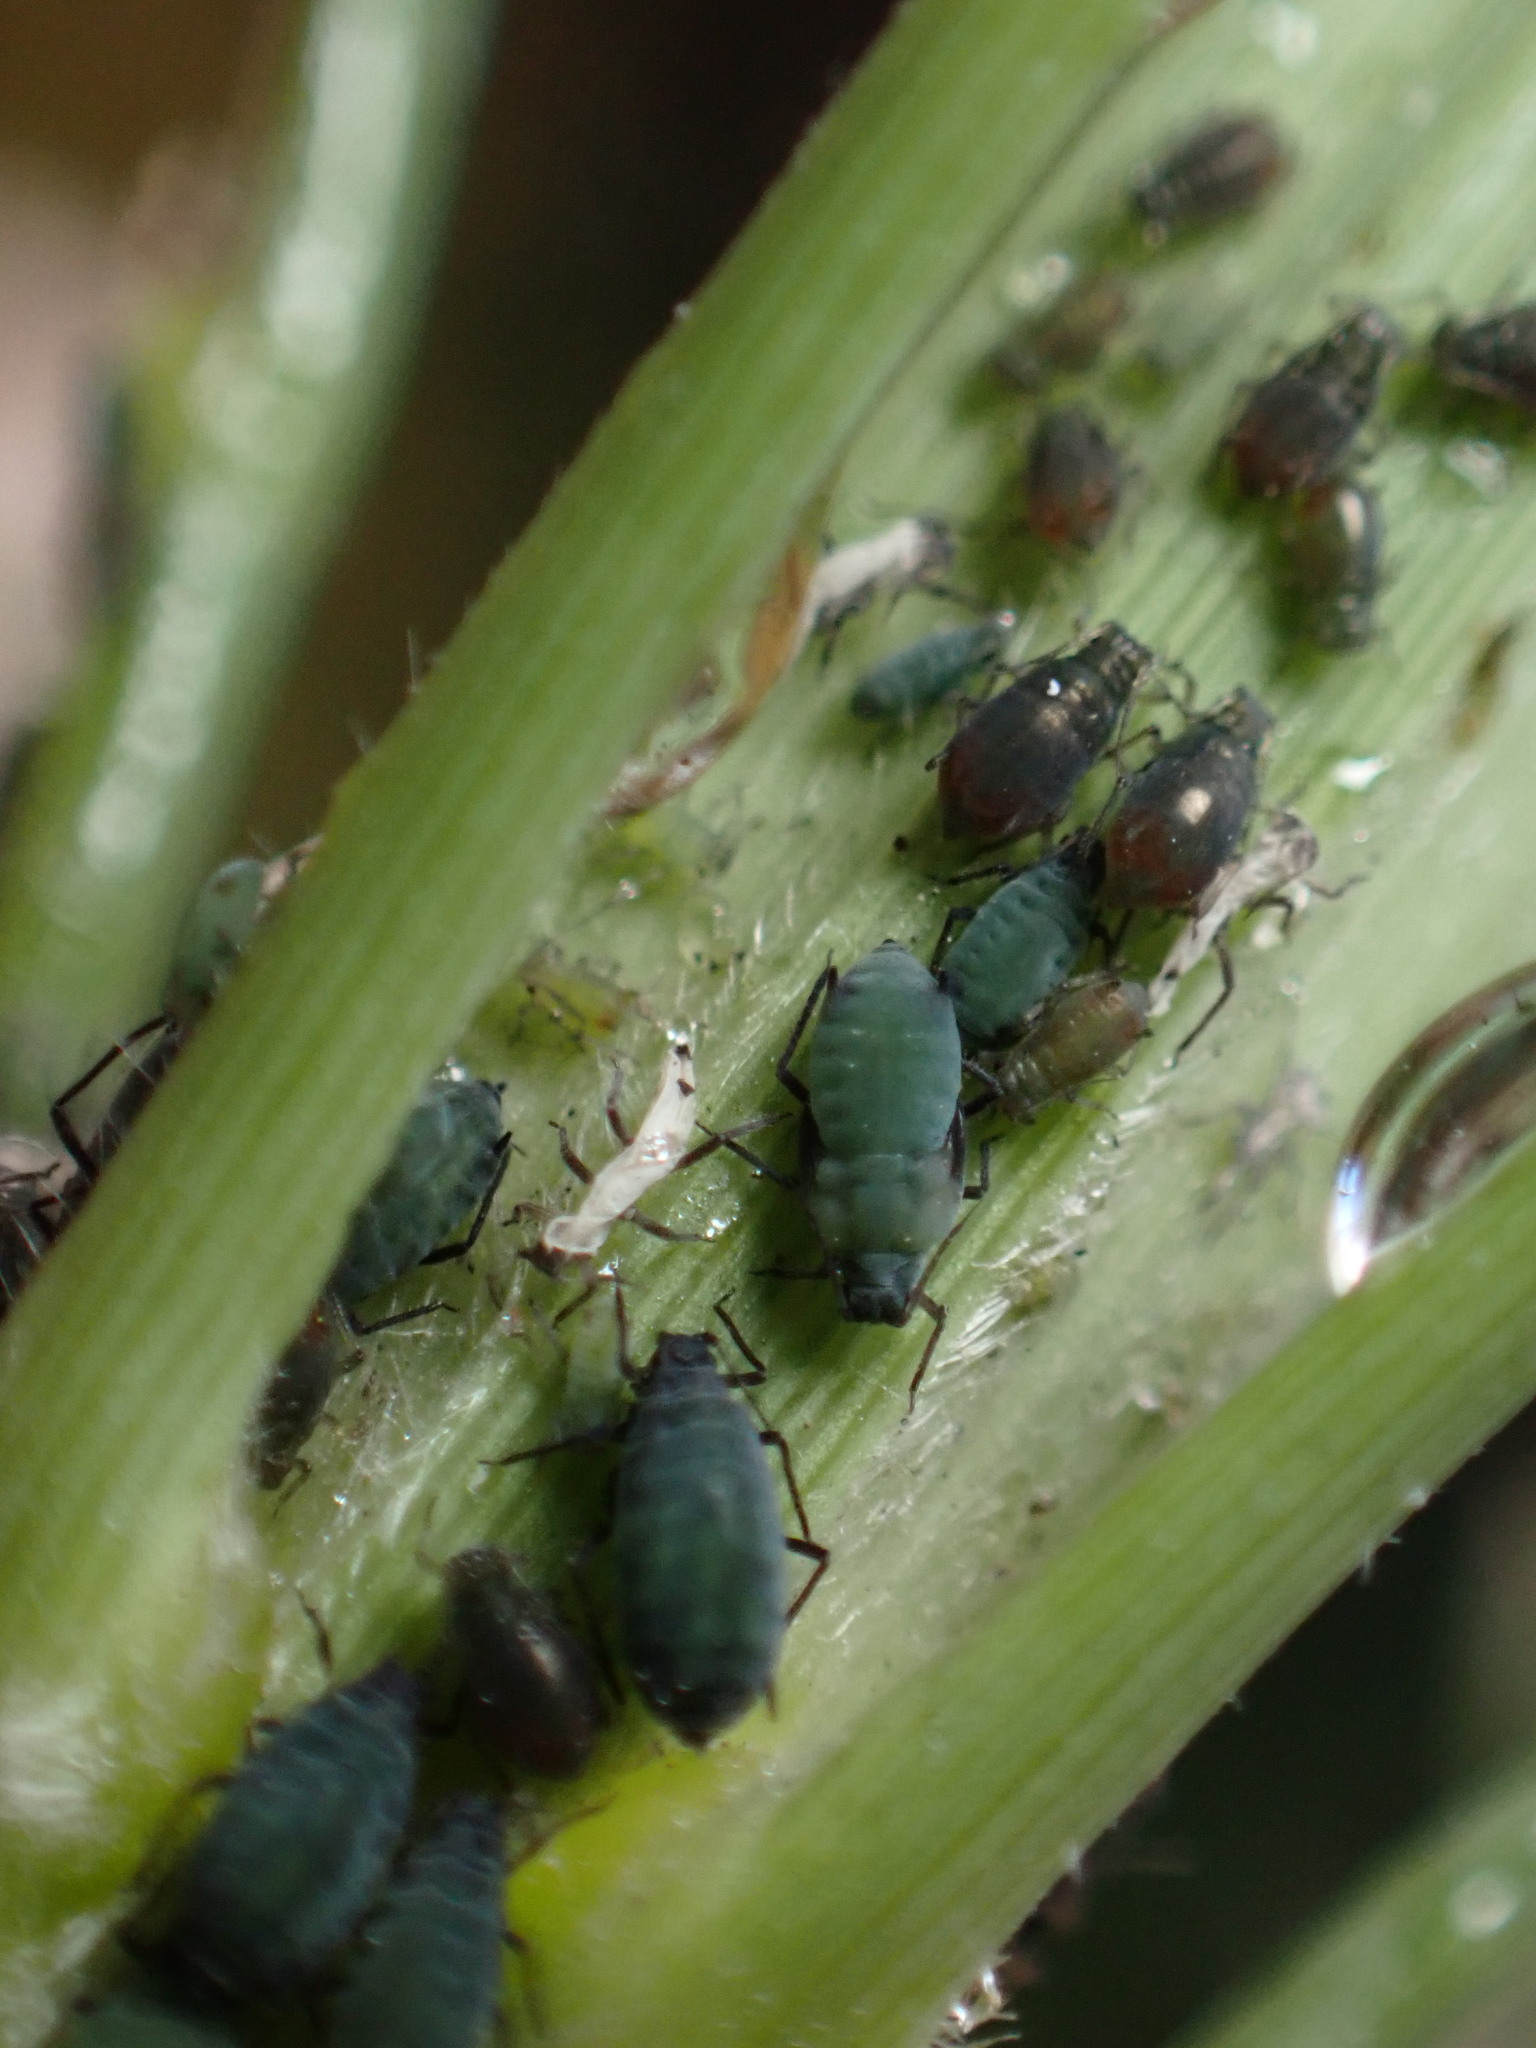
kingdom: Animalia
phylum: Arthropoda
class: Insecta
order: Hemiptera
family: Aphididae
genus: Rhopalosiphum
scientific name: Rhopalosiphum maidis
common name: Corn leaf aphid
